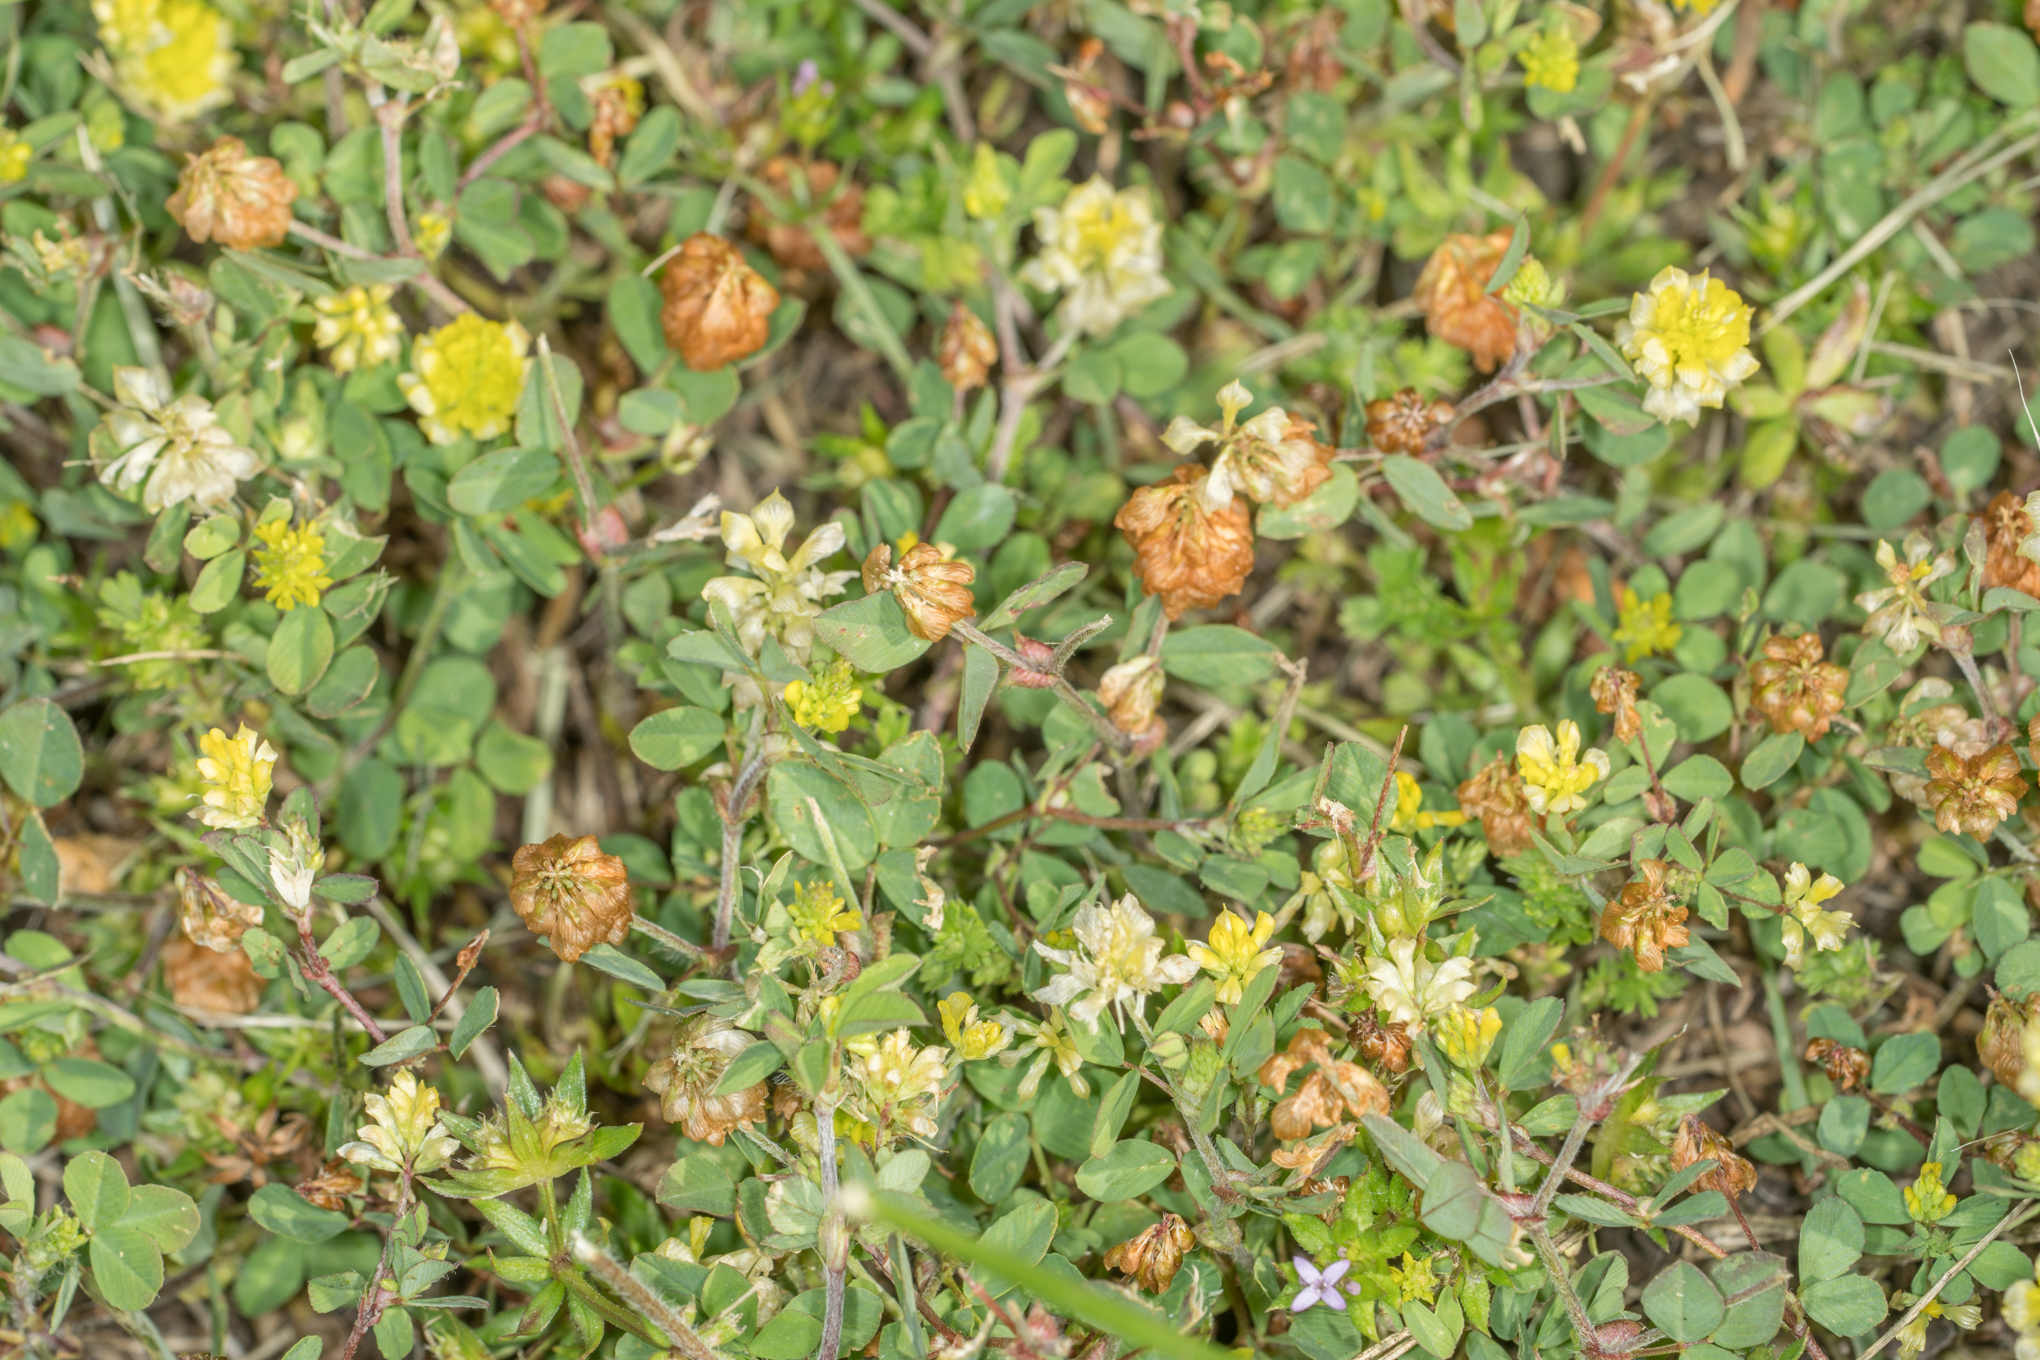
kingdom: Plantae
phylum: Tracheophyta
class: Magnoliopsida
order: Fabales
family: Fabaceae
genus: Trifolium
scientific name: Trifolium campestre
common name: Field clover
